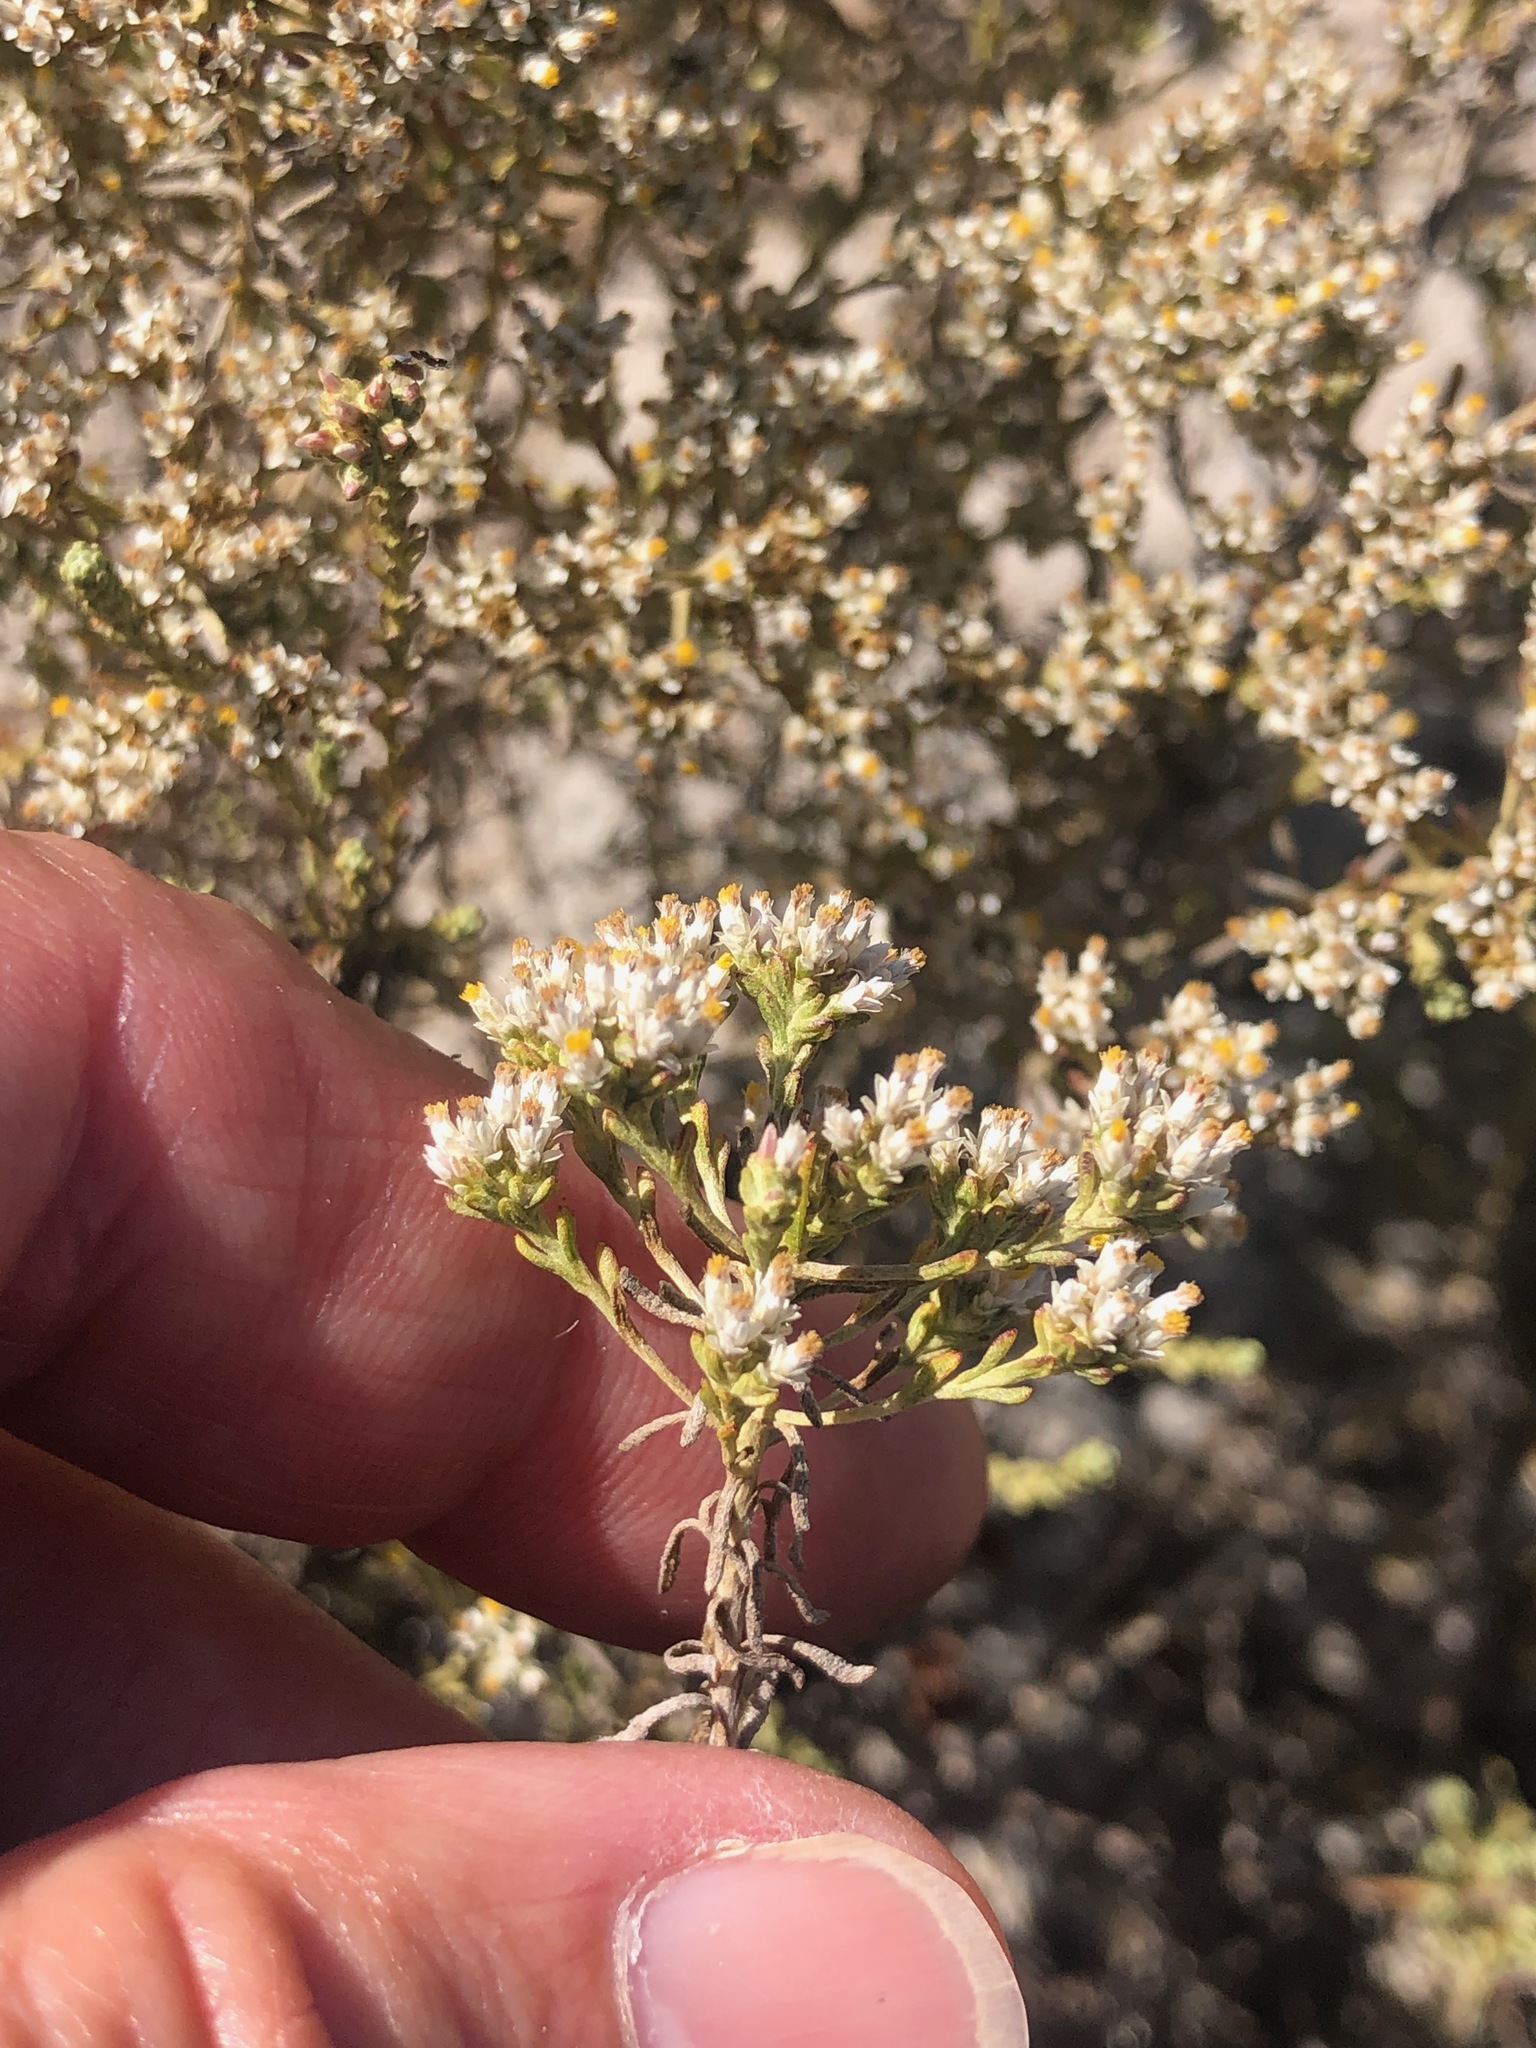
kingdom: Plantae
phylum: Tracheophyta
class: Magnoliopsida
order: Asterales
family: Asteraceae
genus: Helichrysum
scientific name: Helichrysum niveum
